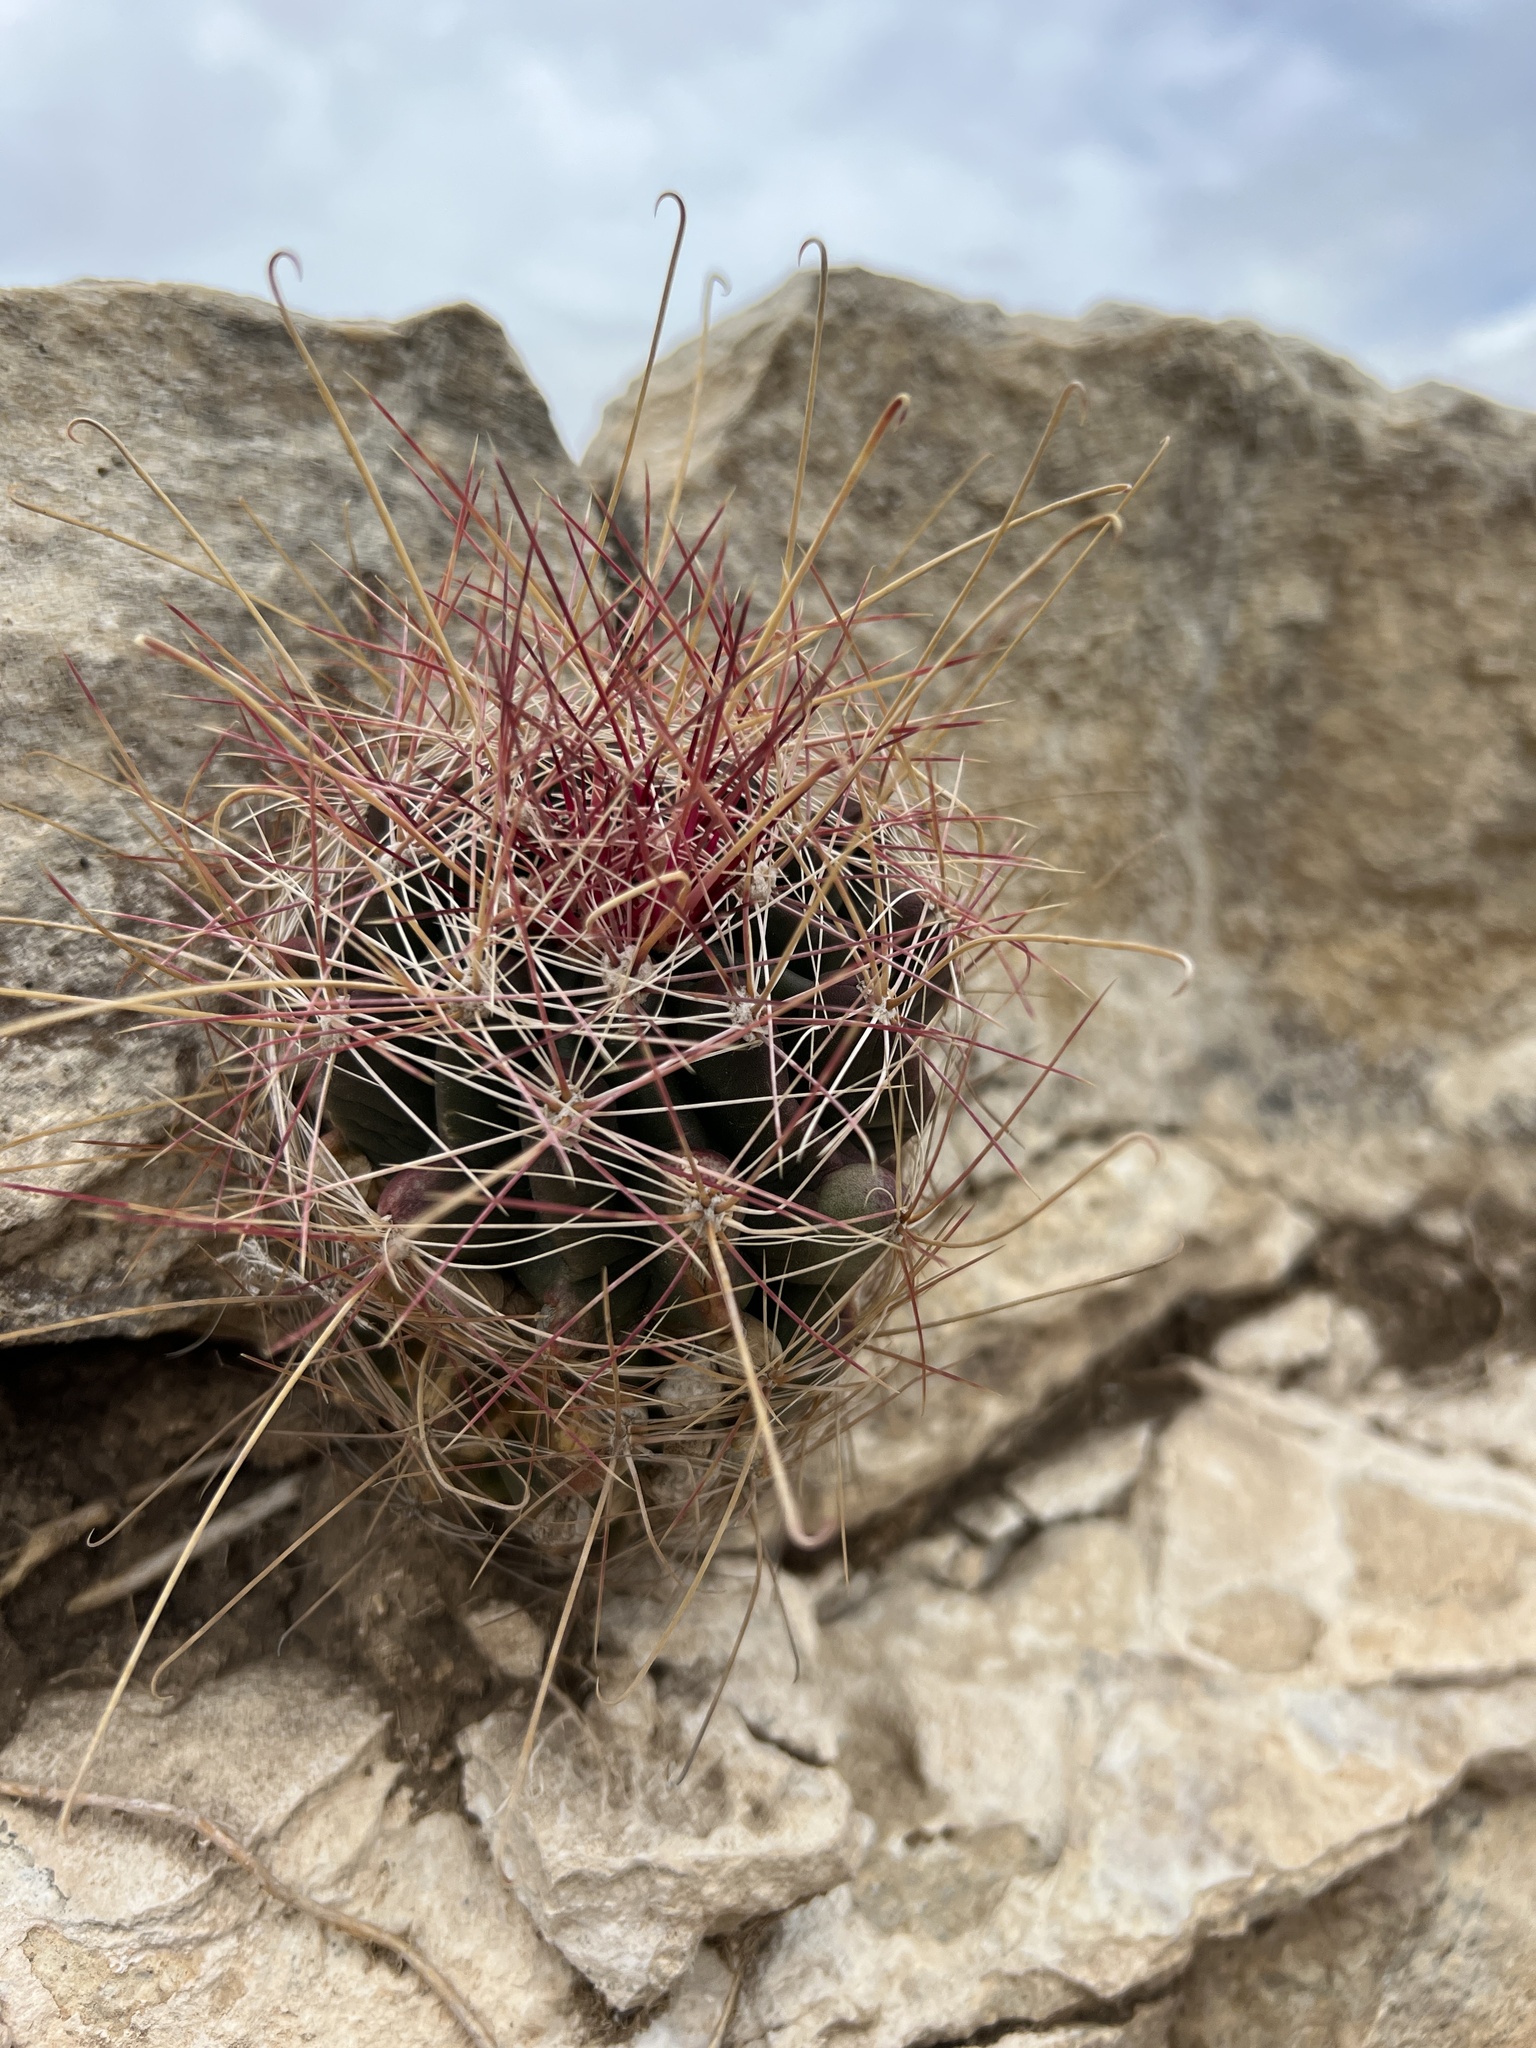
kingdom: Plantae
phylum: Tracheophyta
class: Magnoliopsida
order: Caryophyllales
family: Cactaceae
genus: Bisnaga
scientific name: Bisnaga hamatacantha
